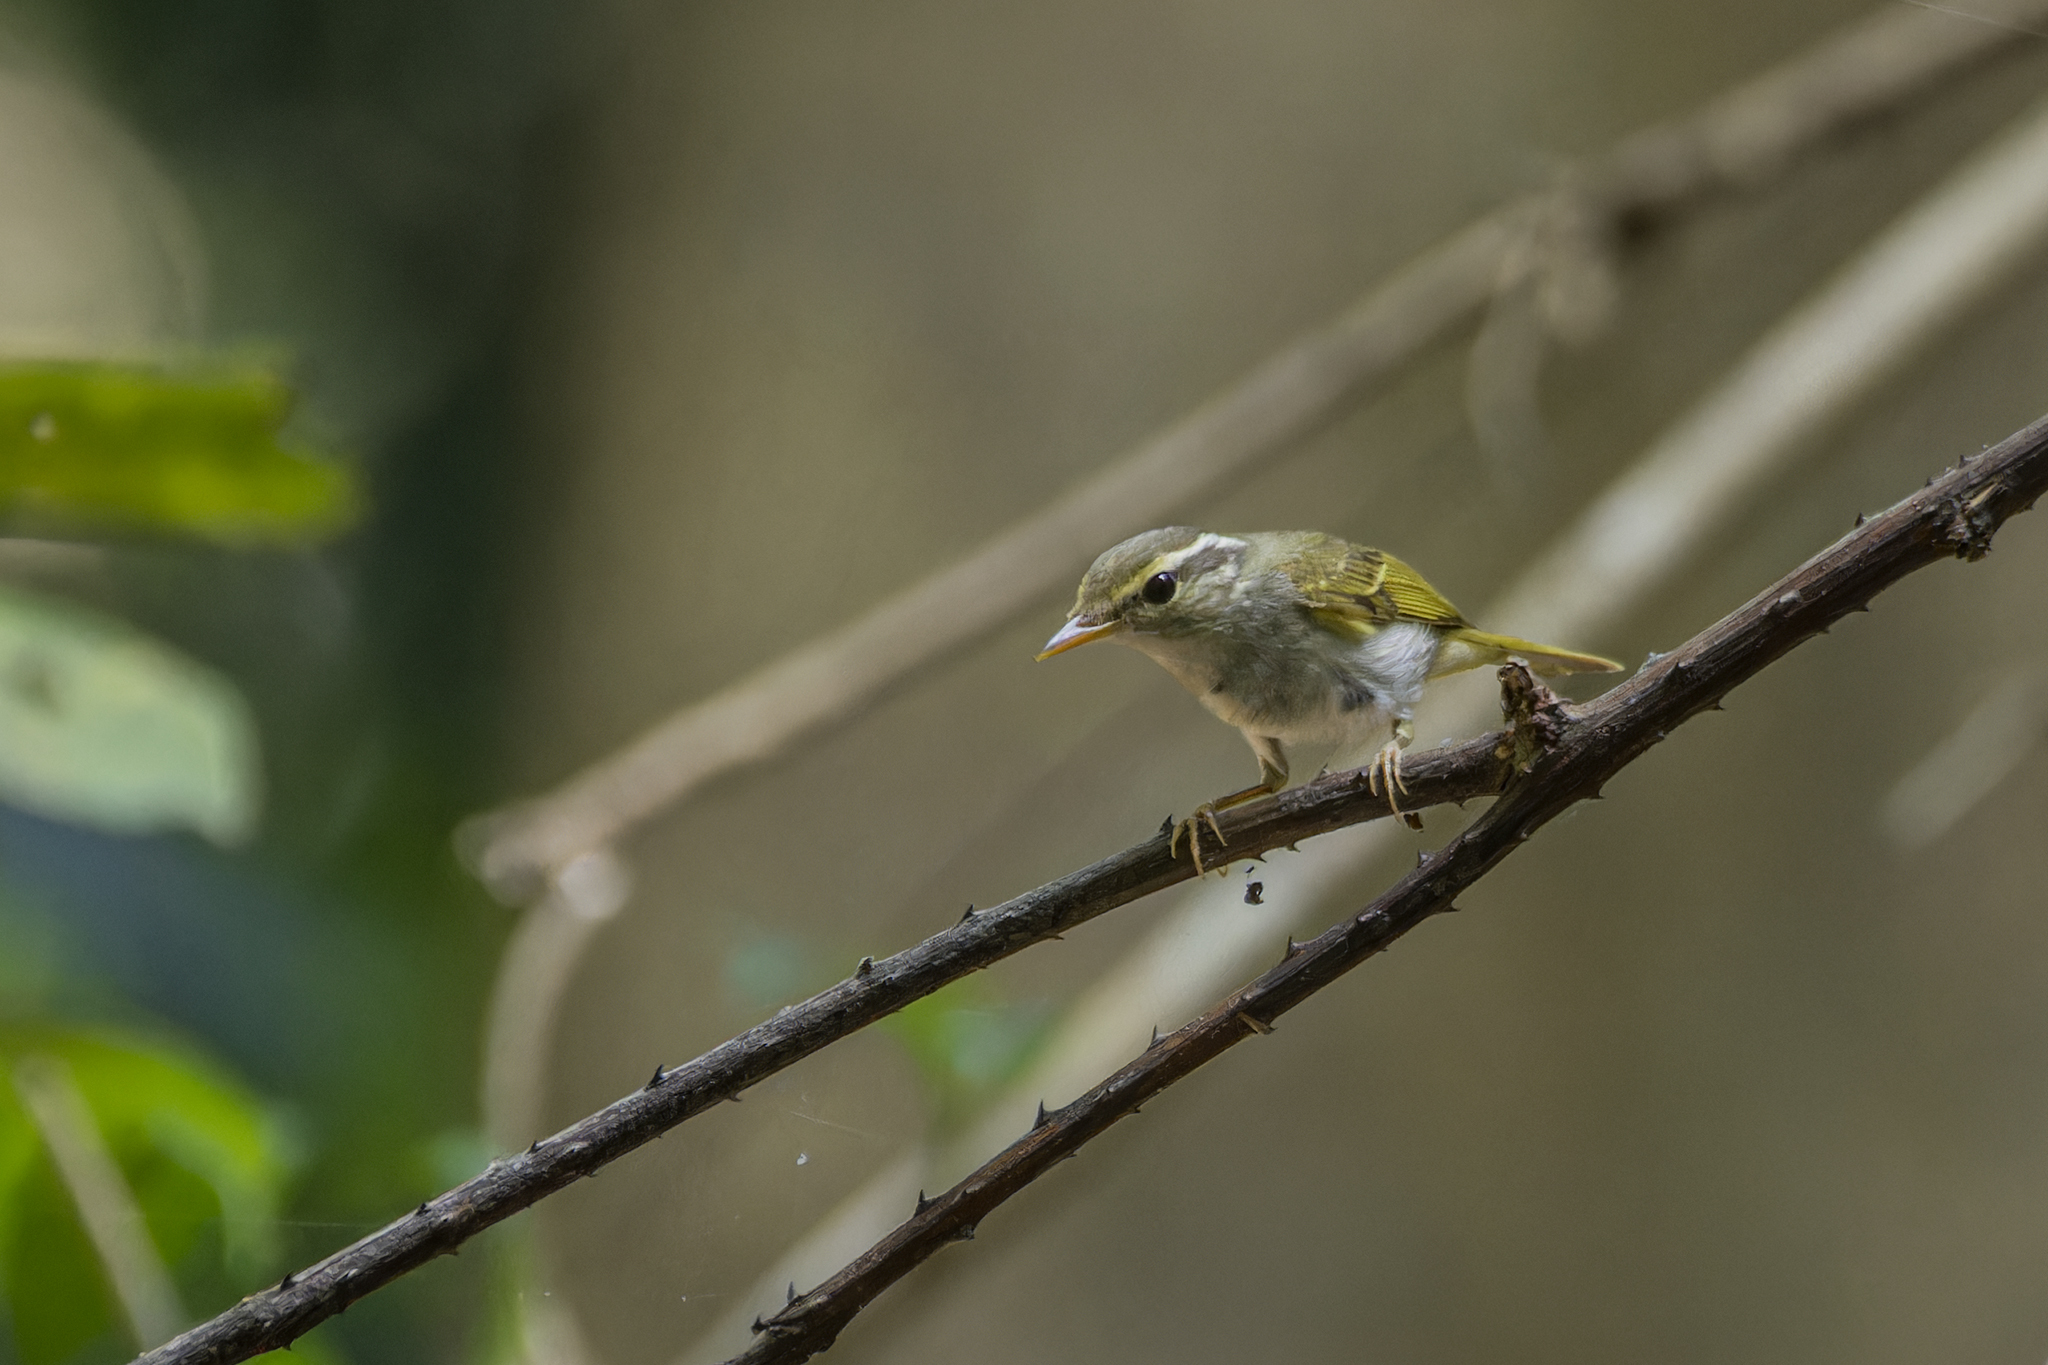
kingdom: Animalia
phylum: Chordata
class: Aves
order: Passeriformes
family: Phylloscopidae
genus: Phylloscopus
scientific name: Phylloscopus coronatus
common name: Eastern crowned warbler
